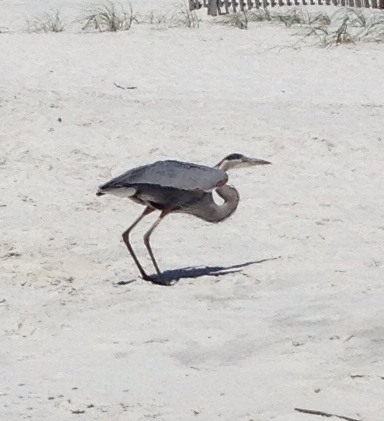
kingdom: Animalia
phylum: Chordata
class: Aves
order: Pelecaniformes
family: Ardeidae
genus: Ardea
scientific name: Ardea herodias
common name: Great blue heron
